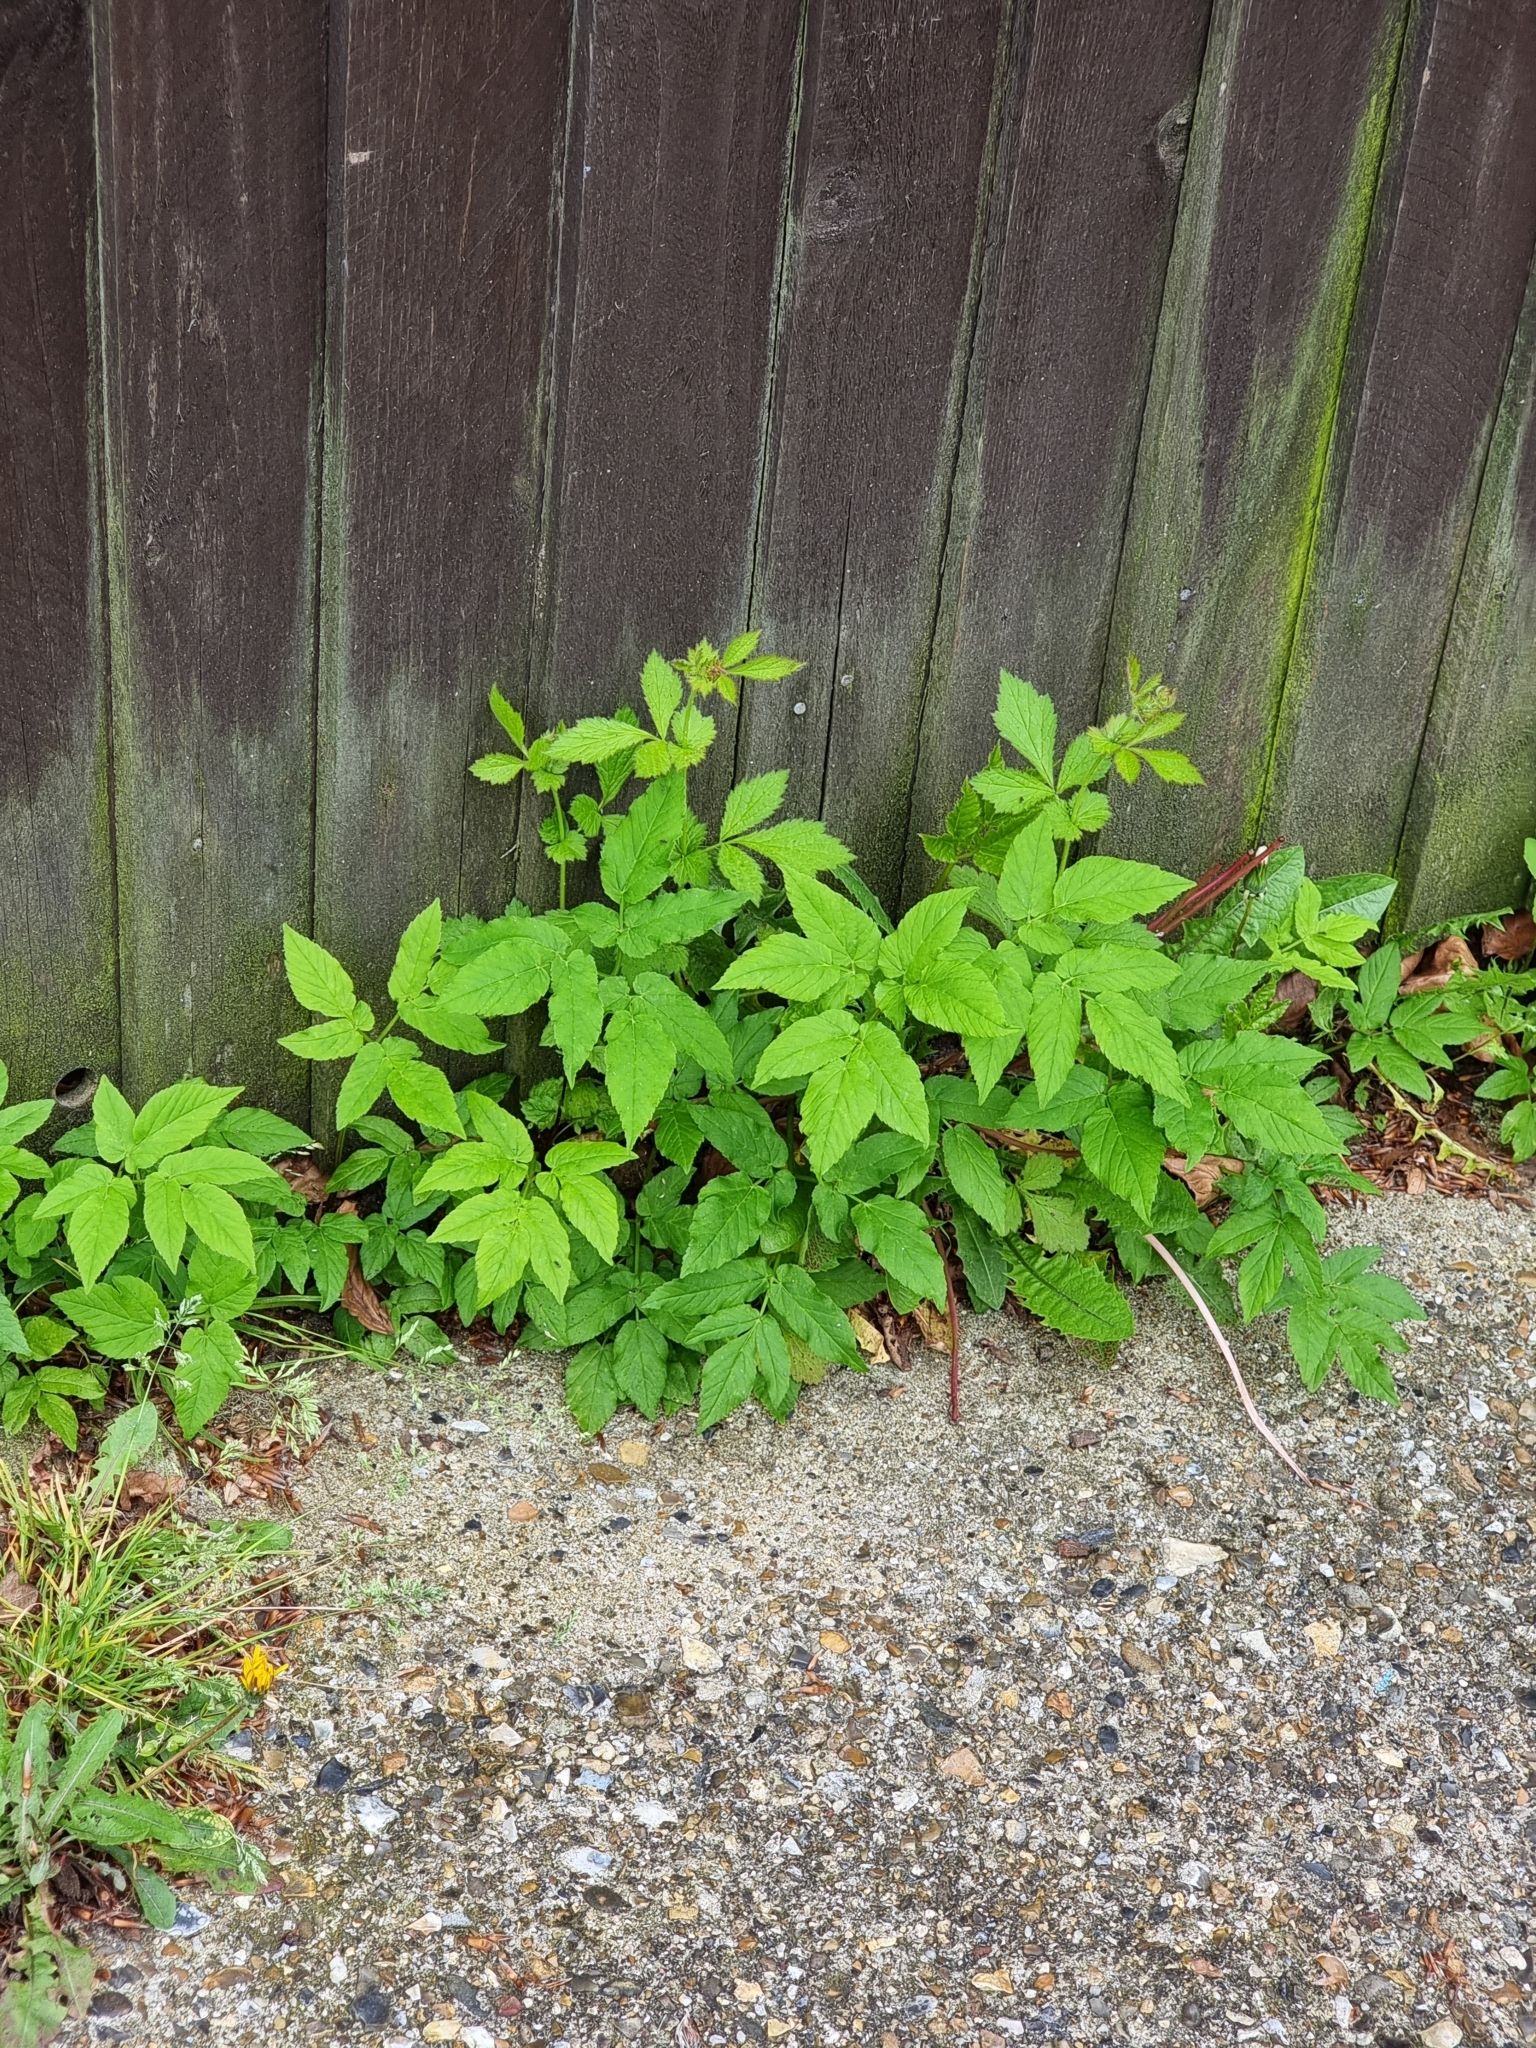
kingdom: Plantae
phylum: Tracheophyta
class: Magnoliopsida
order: Apiales
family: Apiaceae
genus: Aegopodium
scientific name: Aegopodium podagraria
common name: Ground-elder
